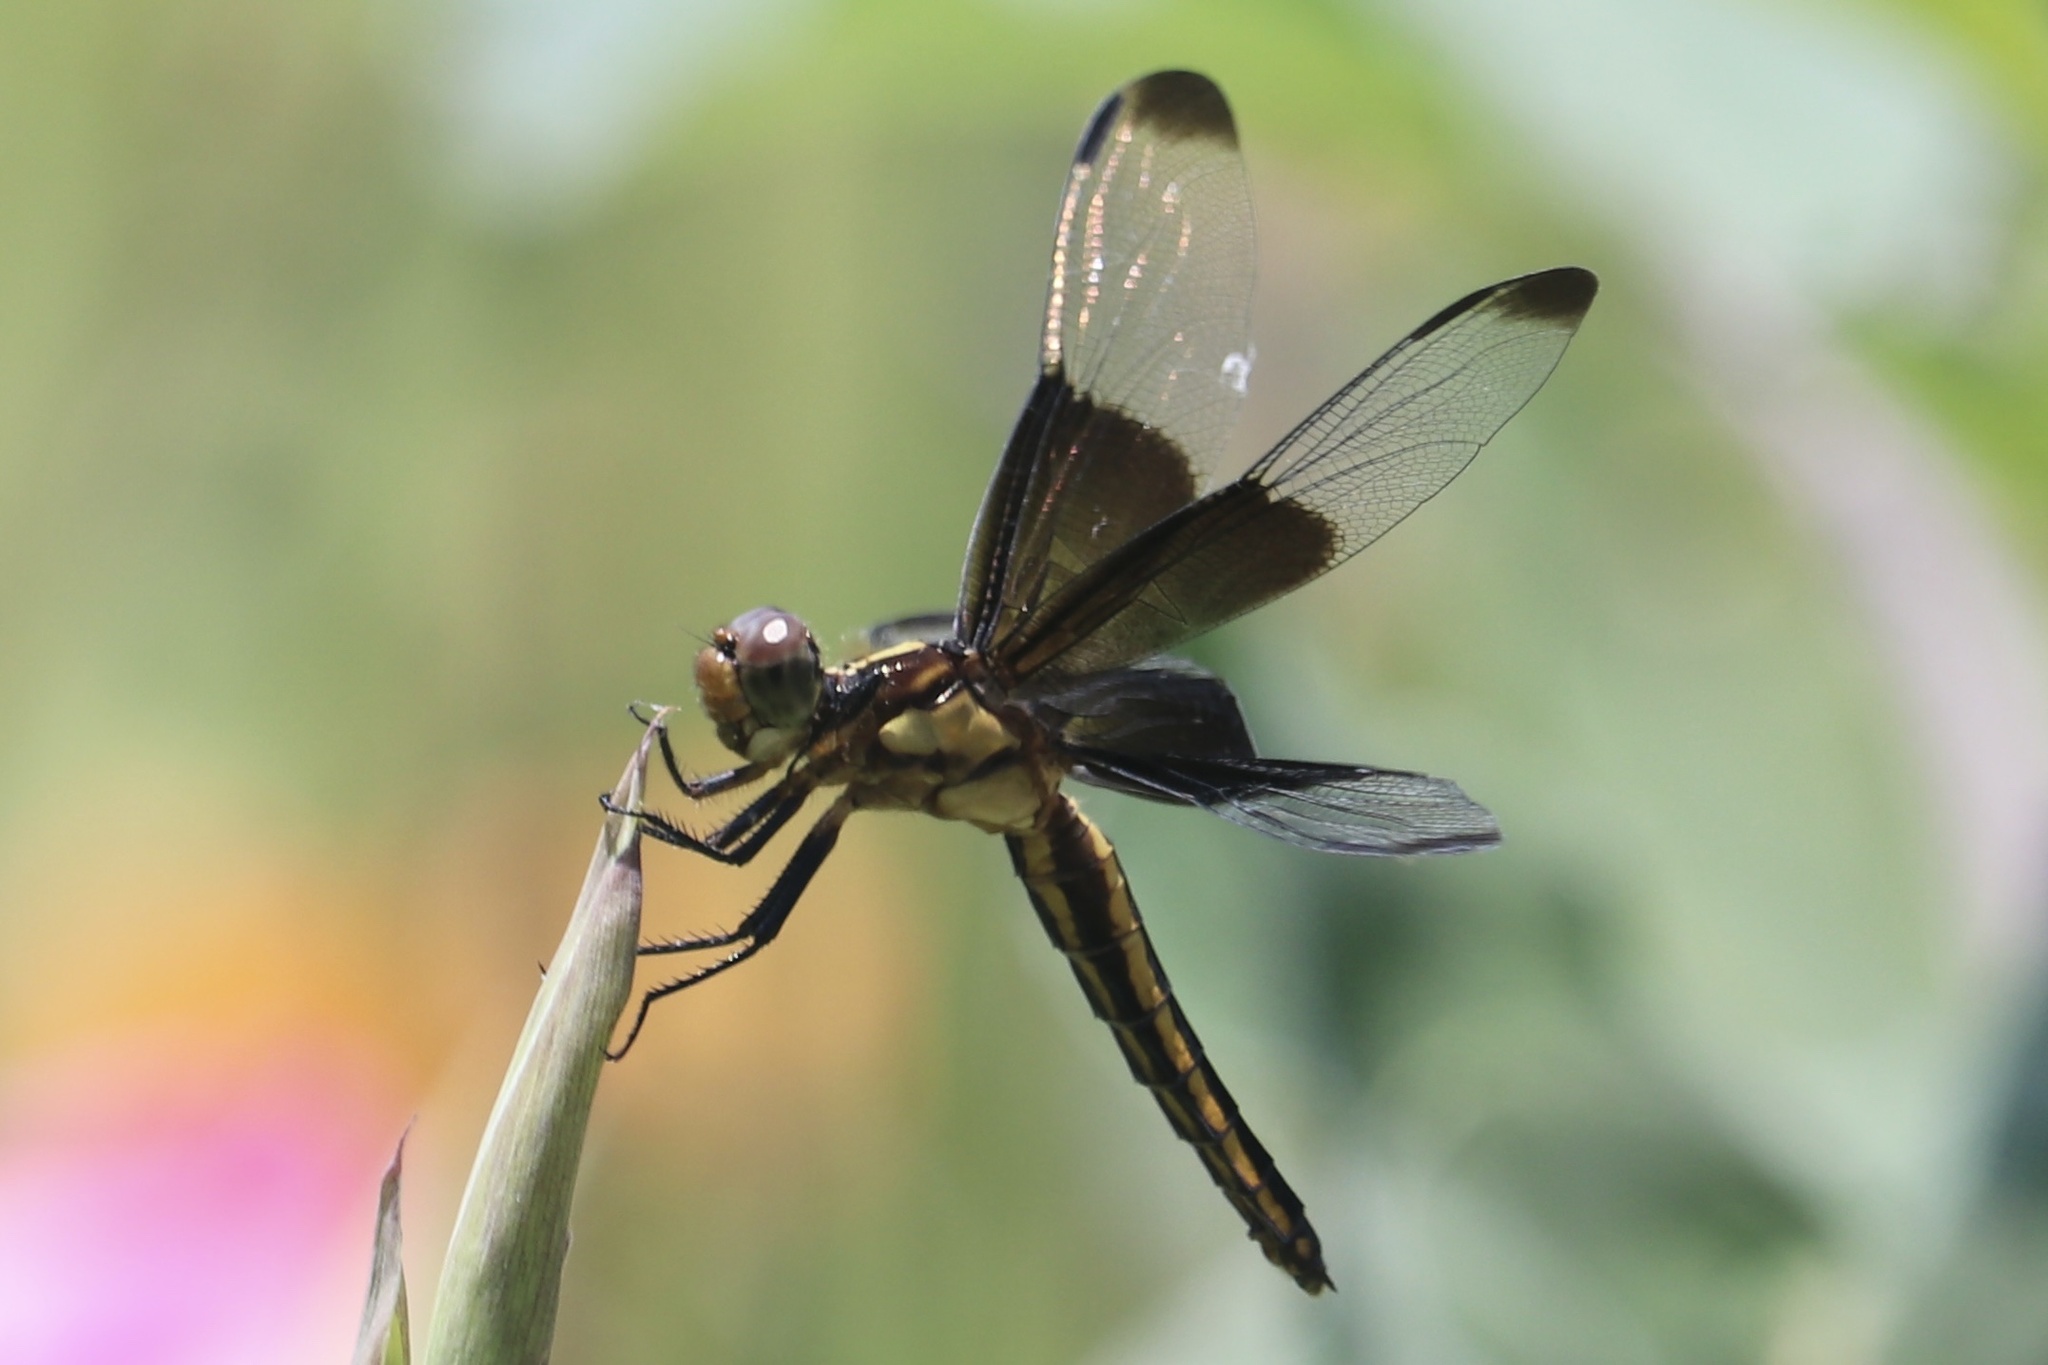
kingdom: Animalia
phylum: Arthropoda
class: Insecta
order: Odonata
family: Libellulidae
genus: Libellula
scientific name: Libellula luctuosa
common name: Widow skimmer
